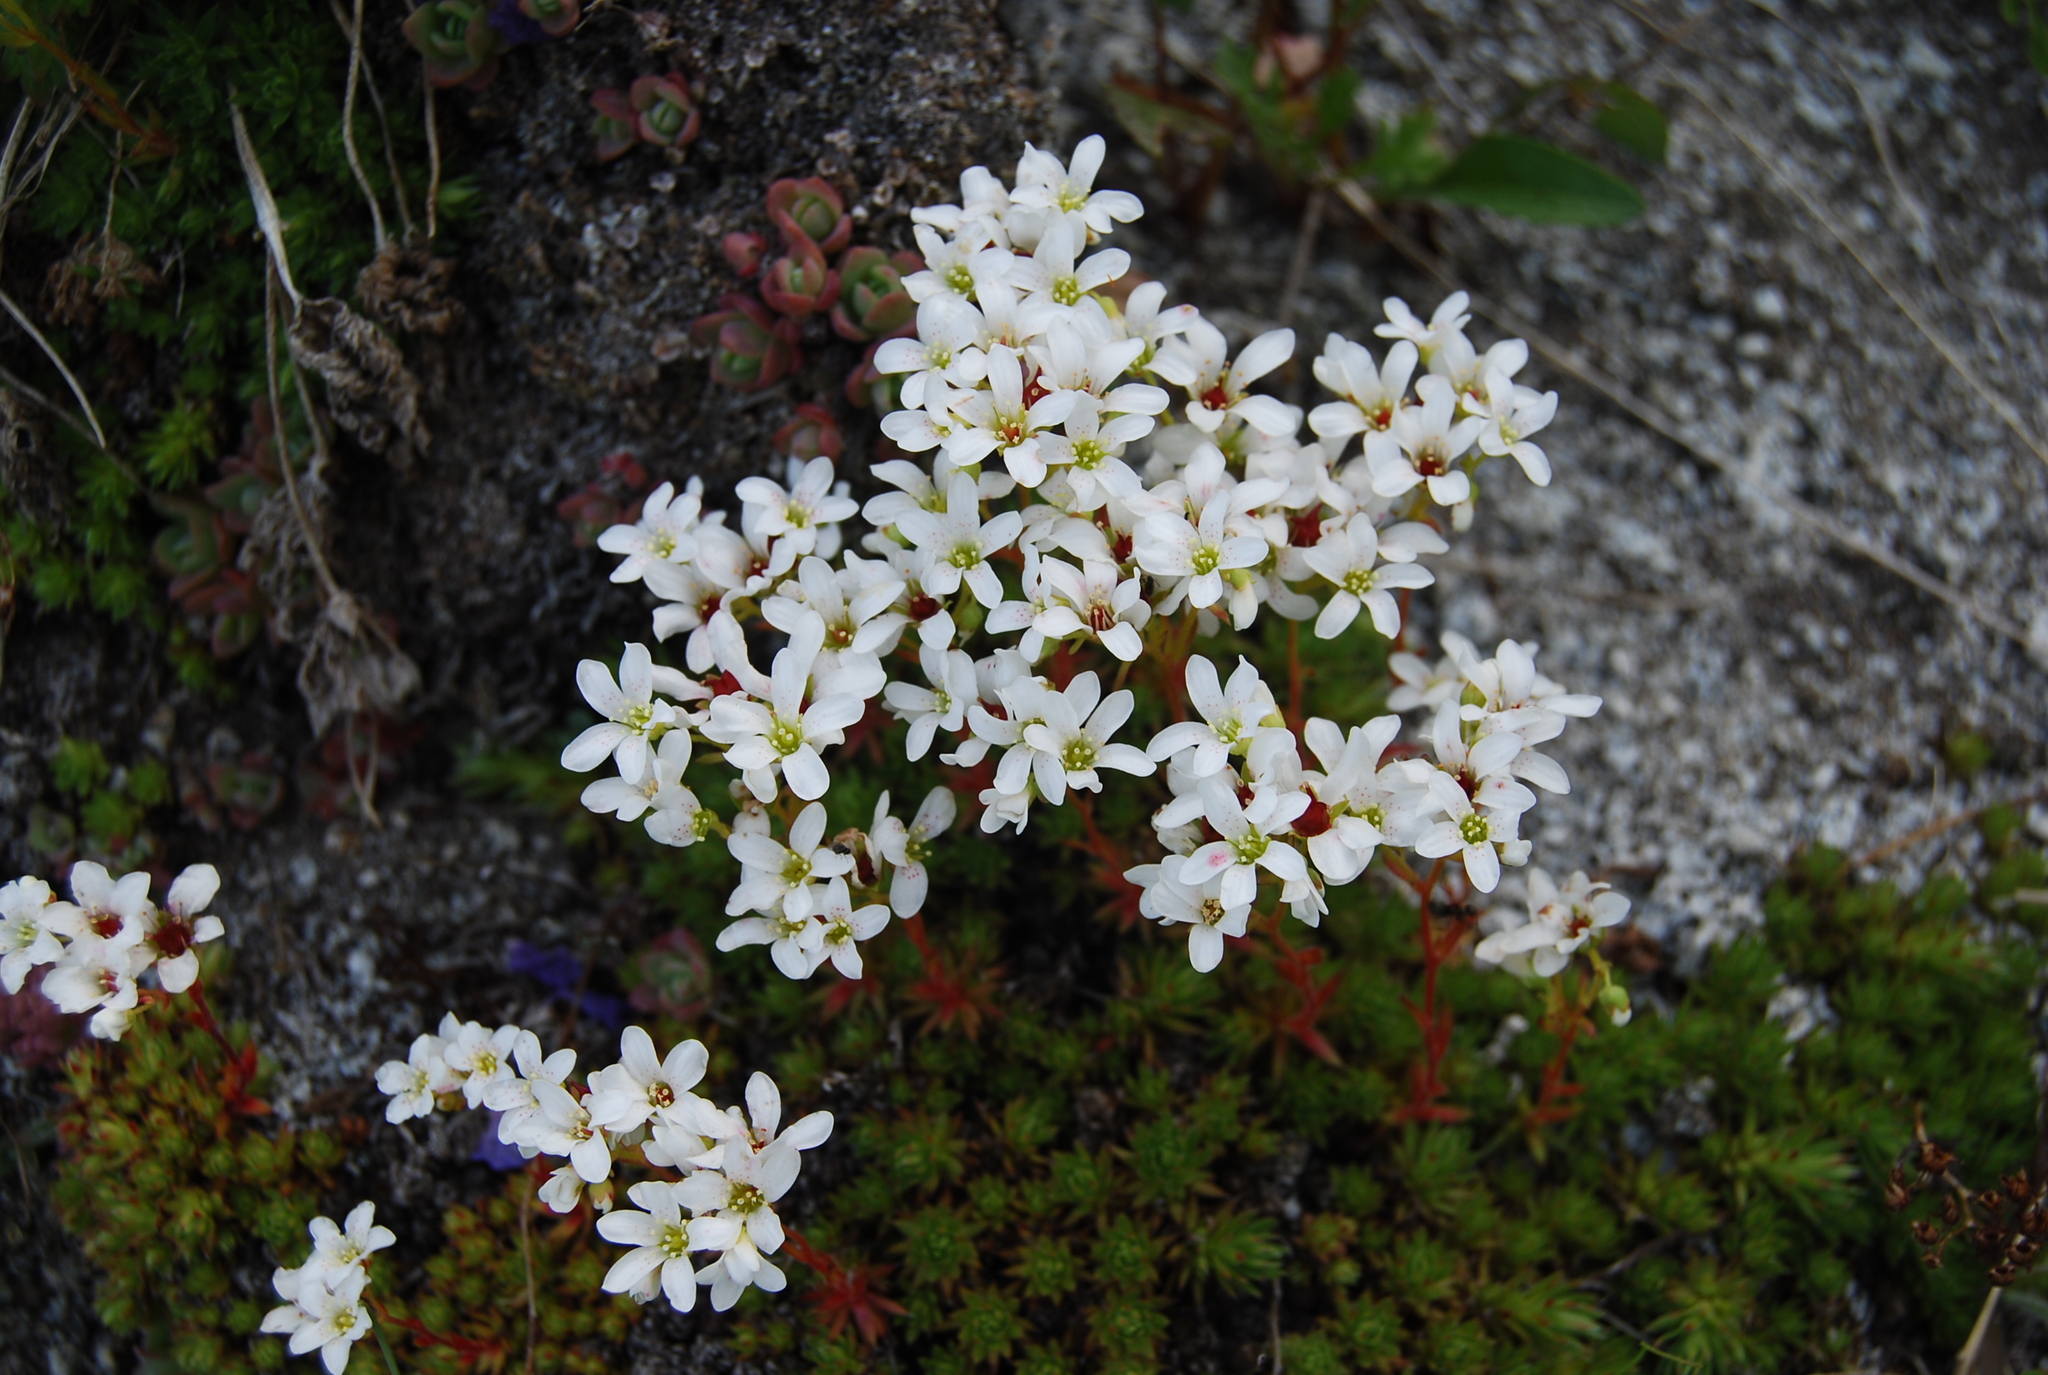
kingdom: Plantae
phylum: Tracheophyta
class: Magnoliopsida
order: Saxifragales
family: Saxifragaceae
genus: Saxifraga
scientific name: Saxifraga bronchialis
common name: Matted saxifrage
